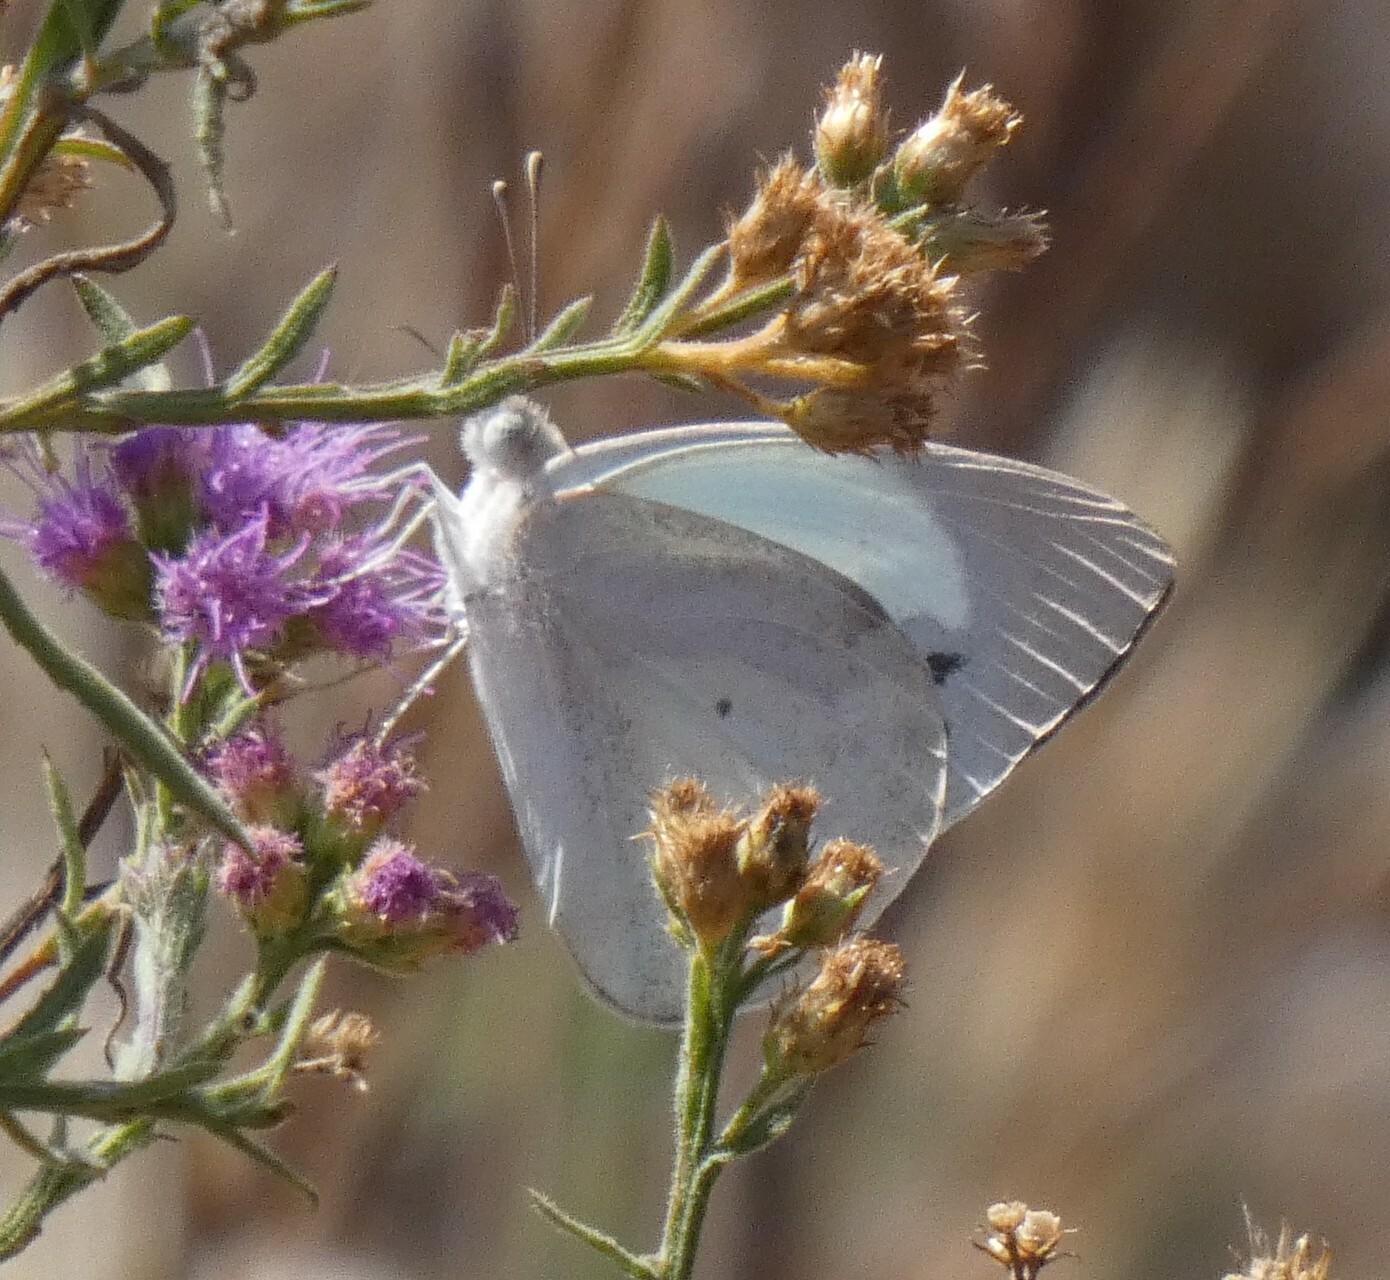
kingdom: Animalia
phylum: Arthropoda
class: Insecta
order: Lepidoptera
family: Pieridae
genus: Colotis
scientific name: Colotis eris
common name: Banded gold tip
